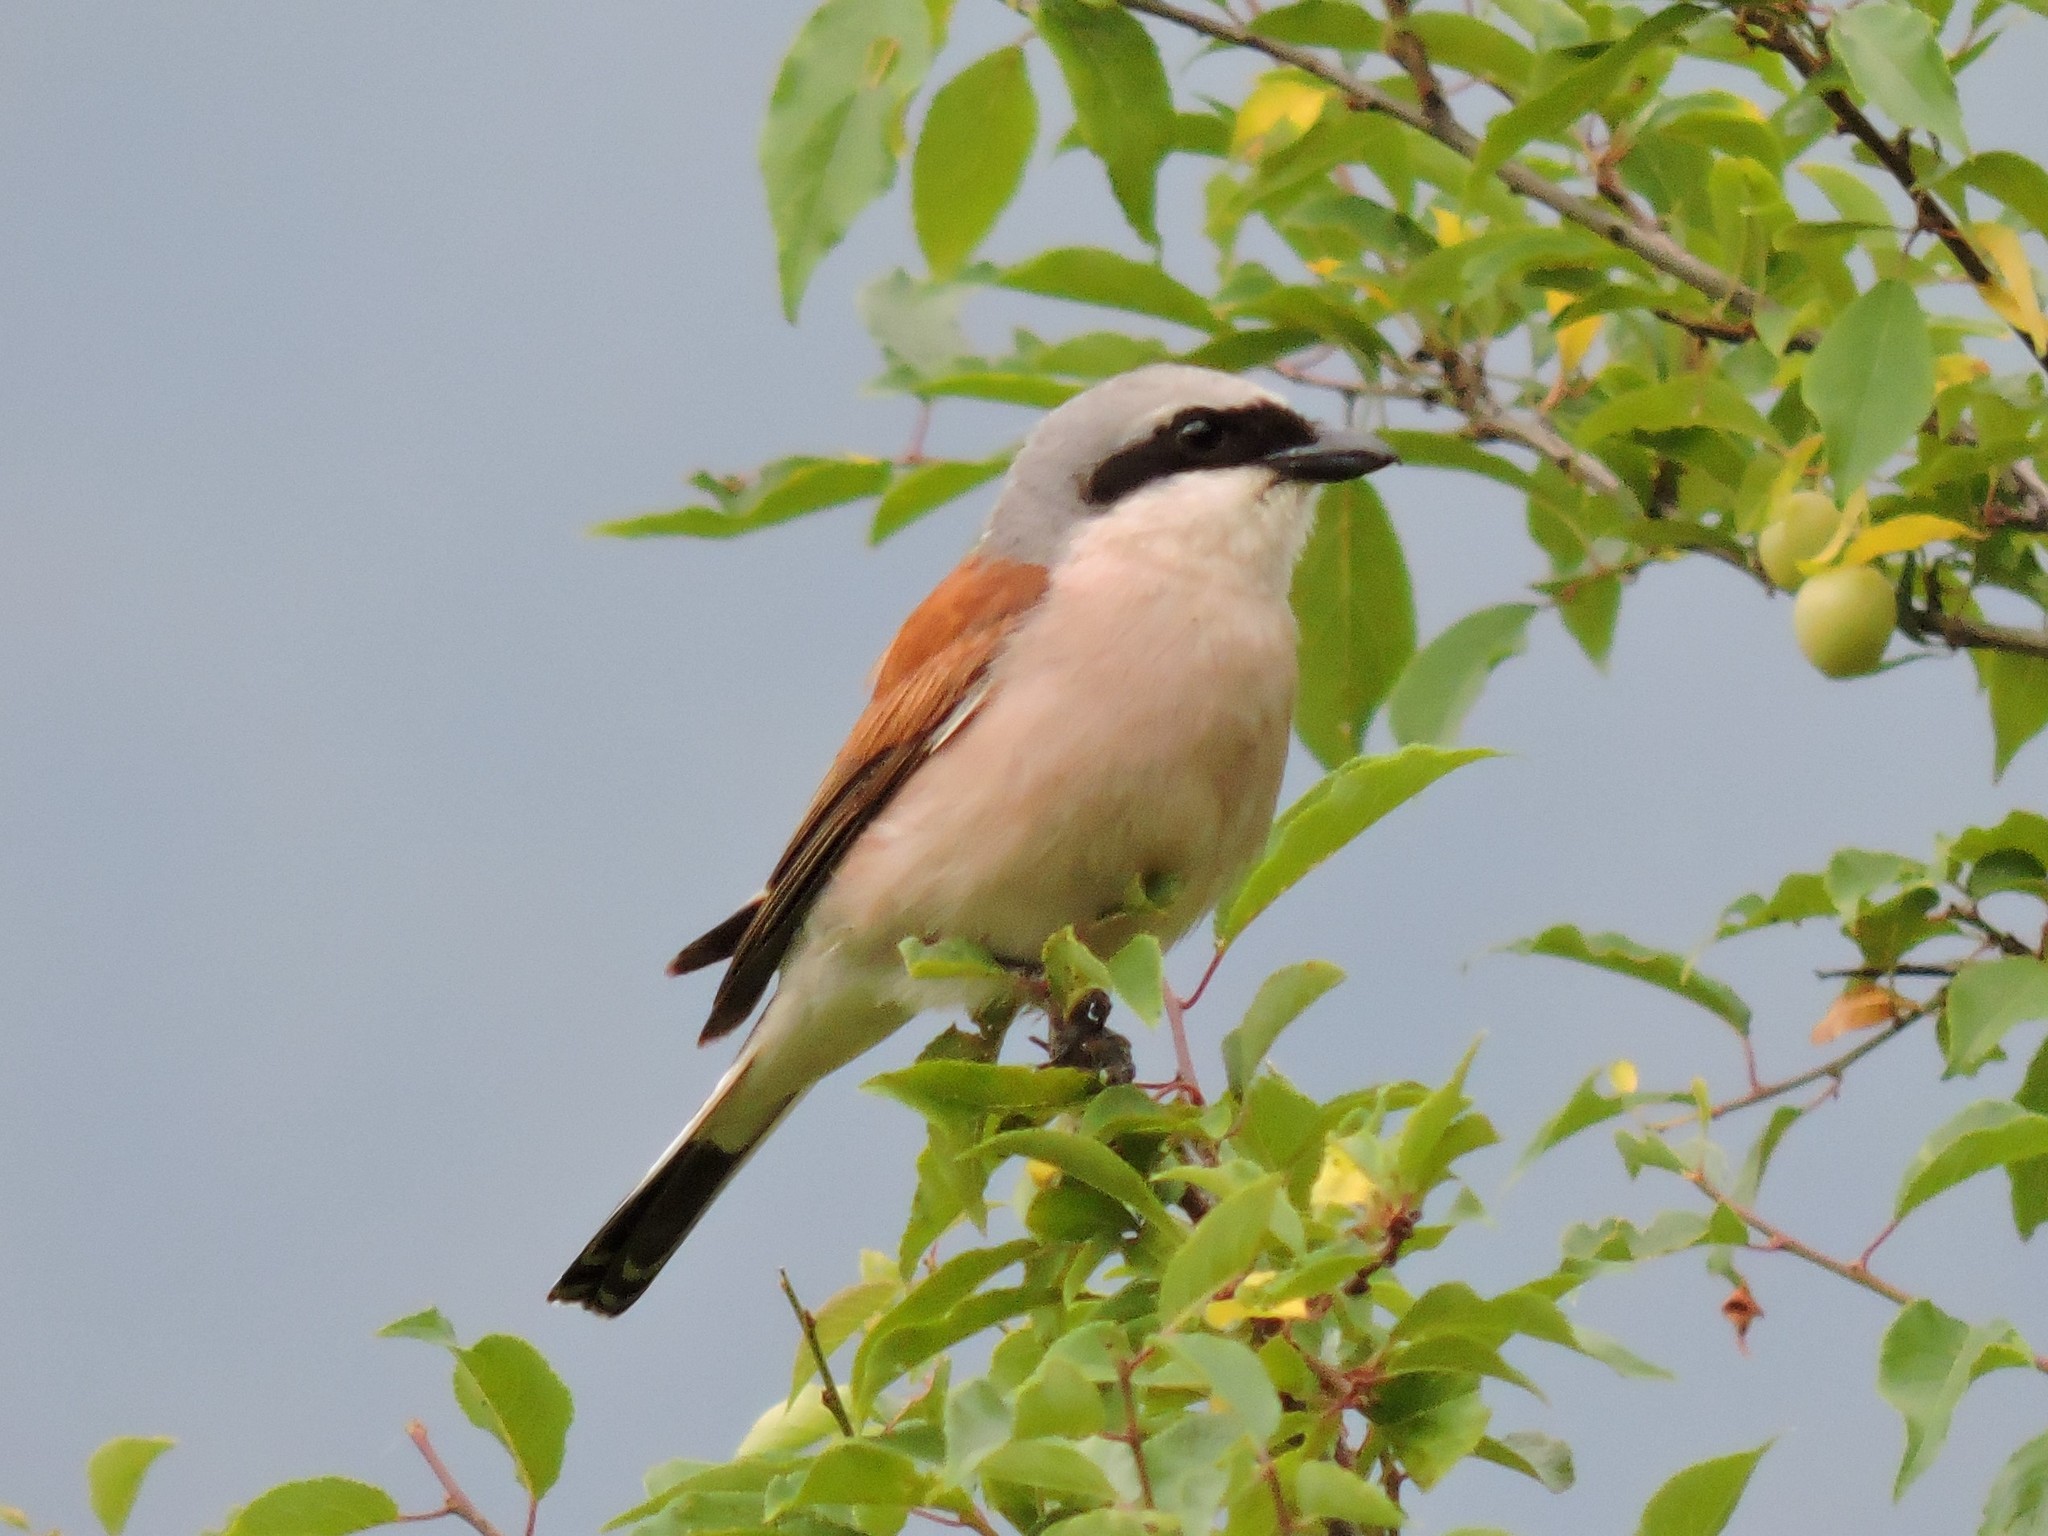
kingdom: Animalia
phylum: Chordata
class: Aves
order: Passeriformes
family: Laniidae
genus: Lanius
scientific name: Lanius collurio
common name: Red-backed shrike
